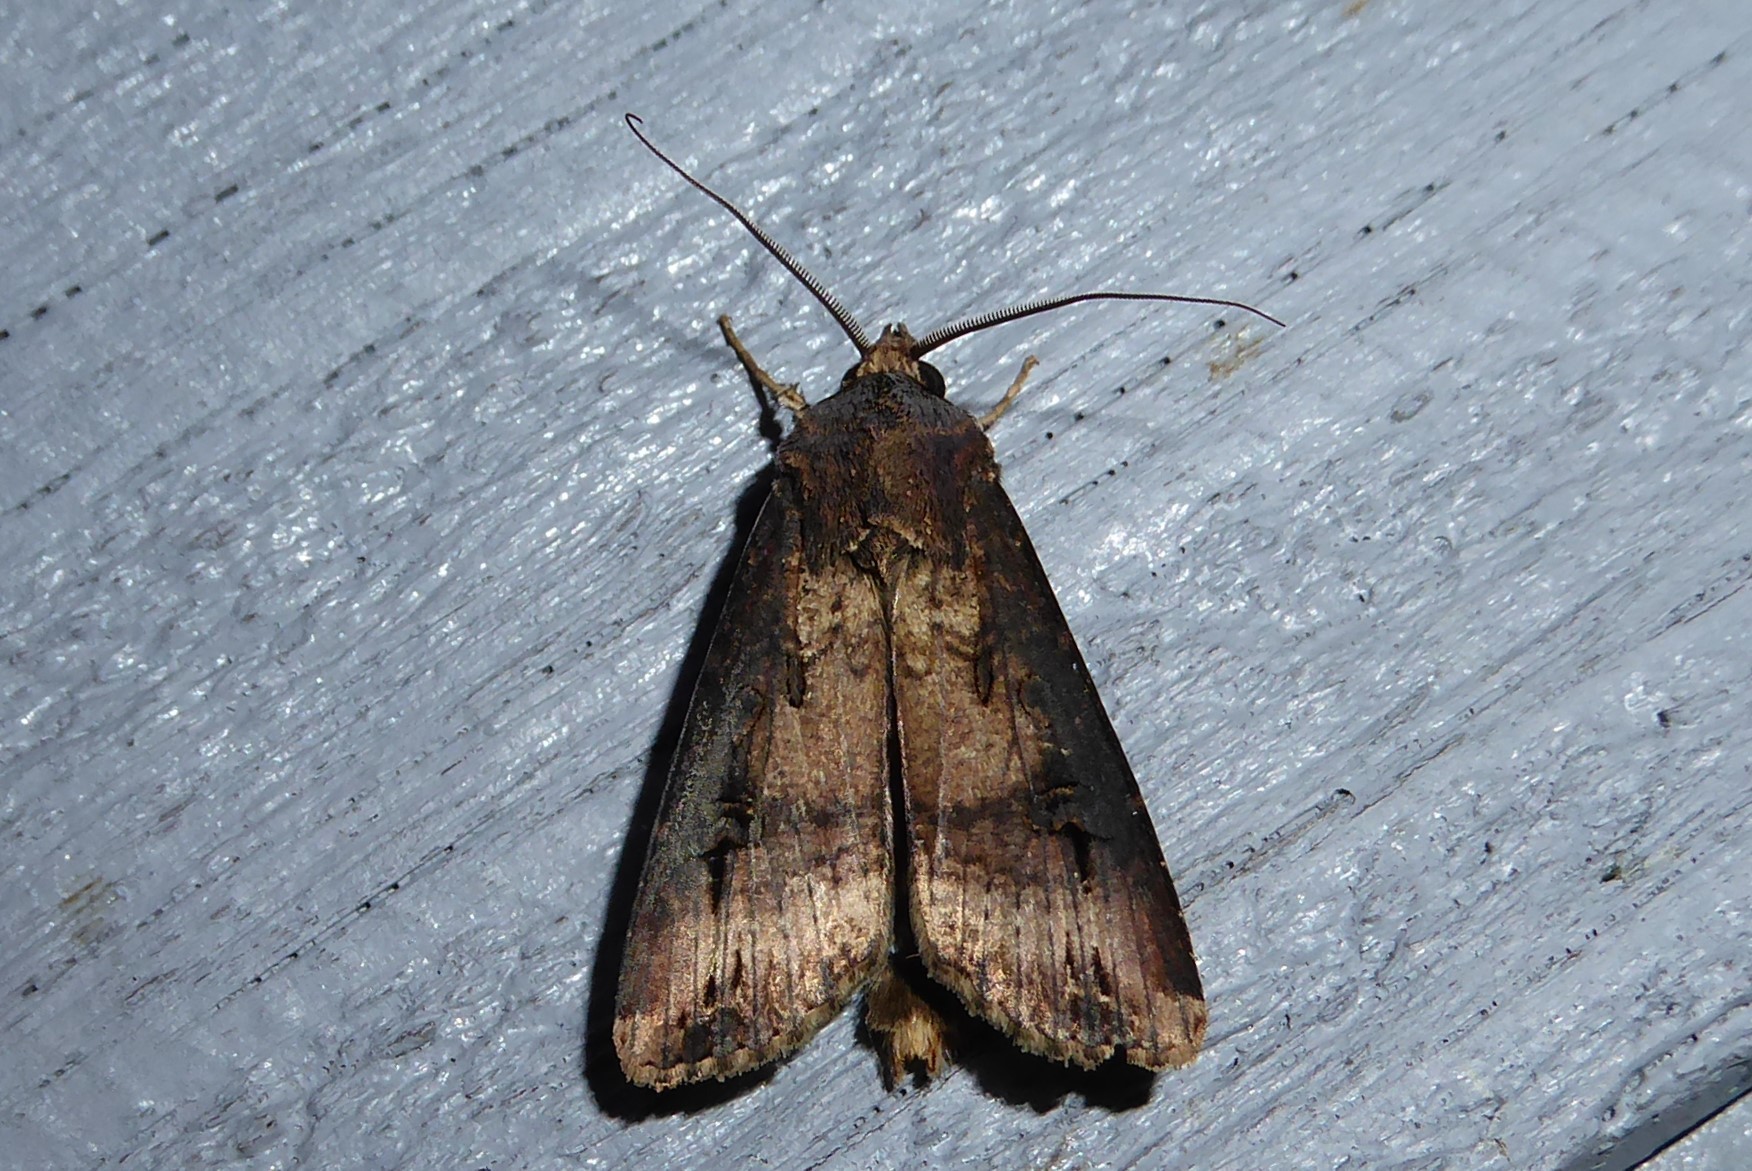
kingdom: Animalia
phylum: Arthropoda
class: Insecta
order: Lepidoptera
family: Noctuidae
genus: Agrotis
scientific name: Agrotis ipsilon
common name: Dark sword-grass
